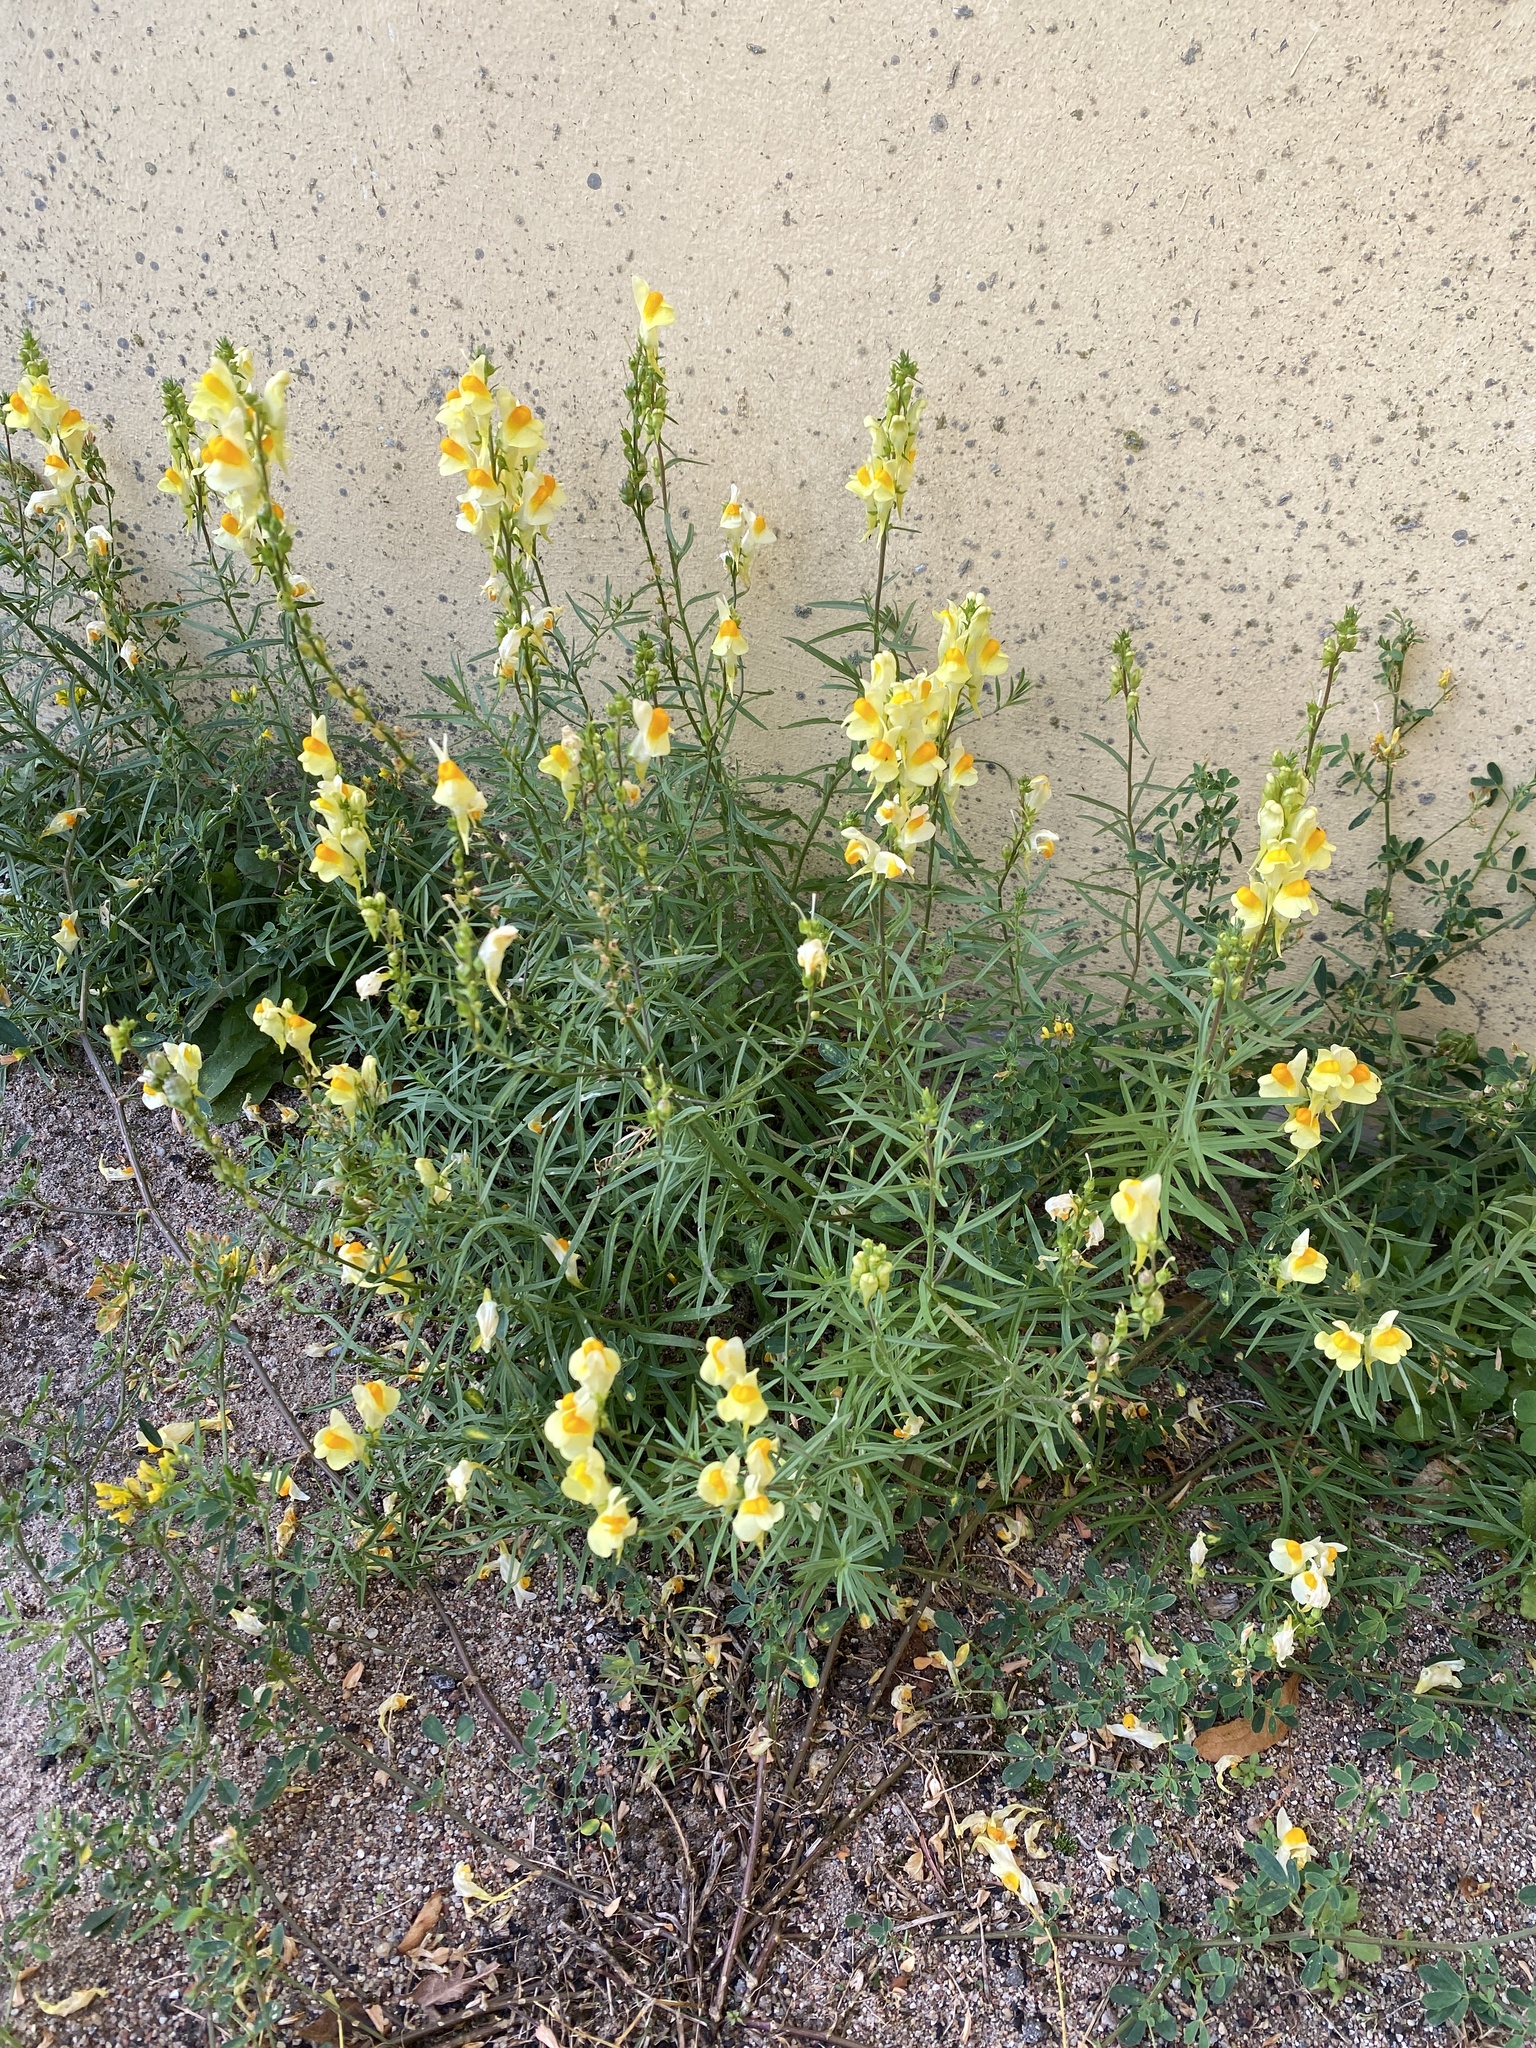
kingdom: Plantae
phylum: Tracheophyta
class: Magnoliopsida
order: Lamiales
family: Plantaginaceae
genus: Linaria
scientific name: Linaria vulgaris
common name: Butter and eggs
